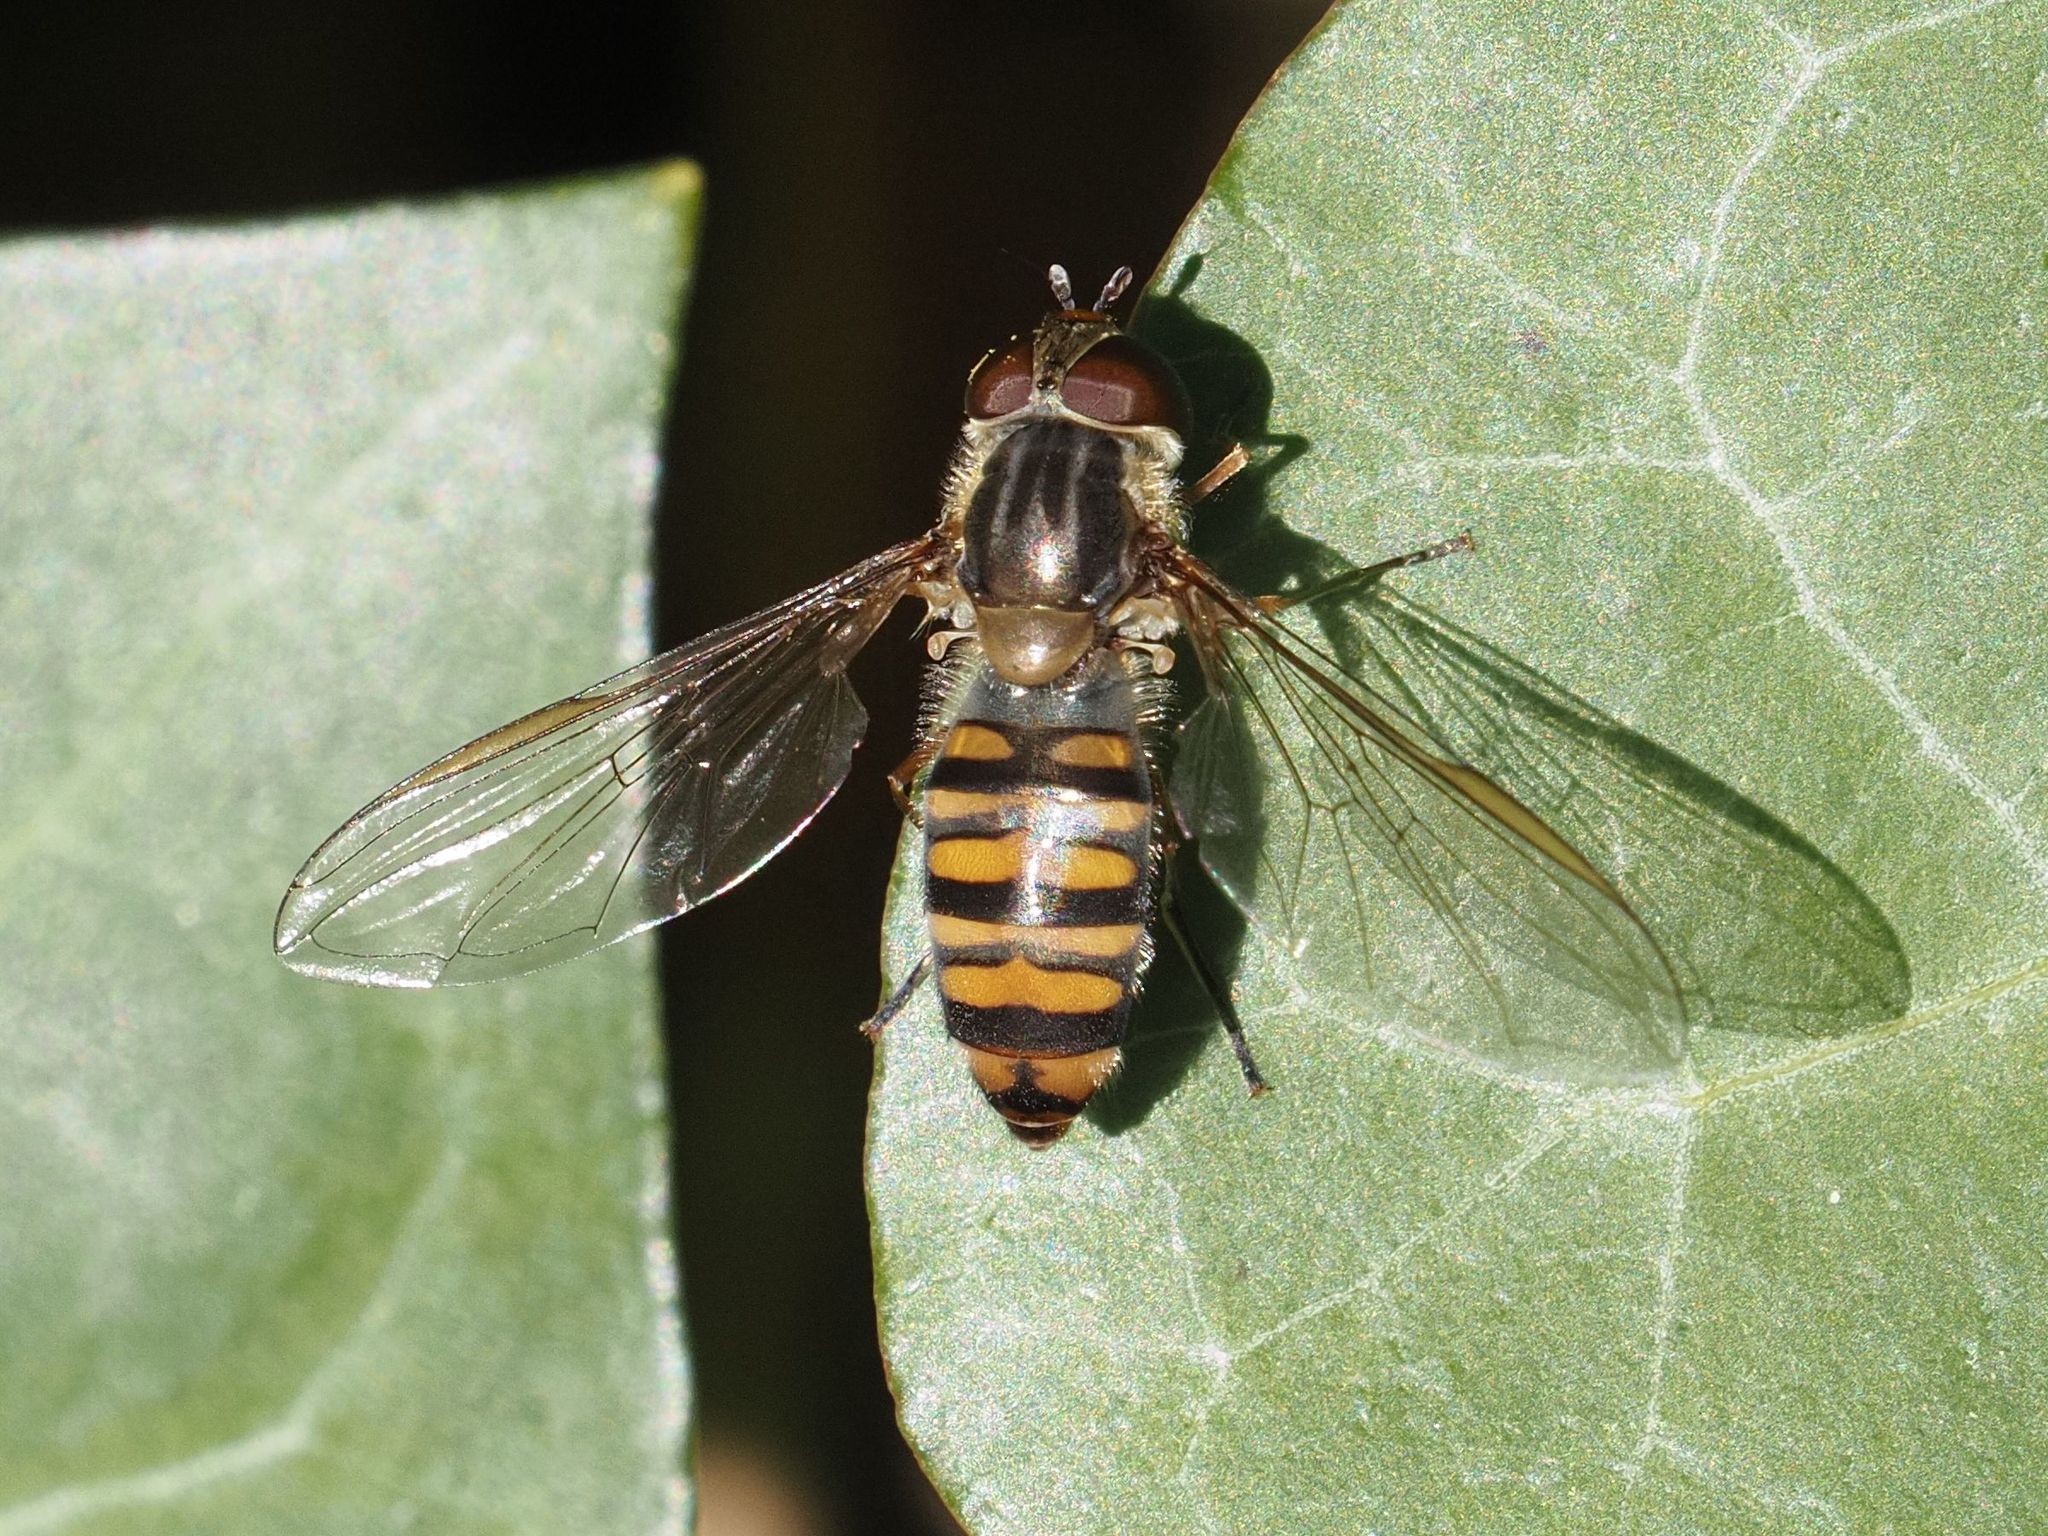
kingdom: Animalia
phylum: Arthropoda
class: Insecta
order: Diptera
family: Syrphidae
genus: Episyrphus
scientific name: Episyrphus balteatus
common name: Marmalade hoverfly
